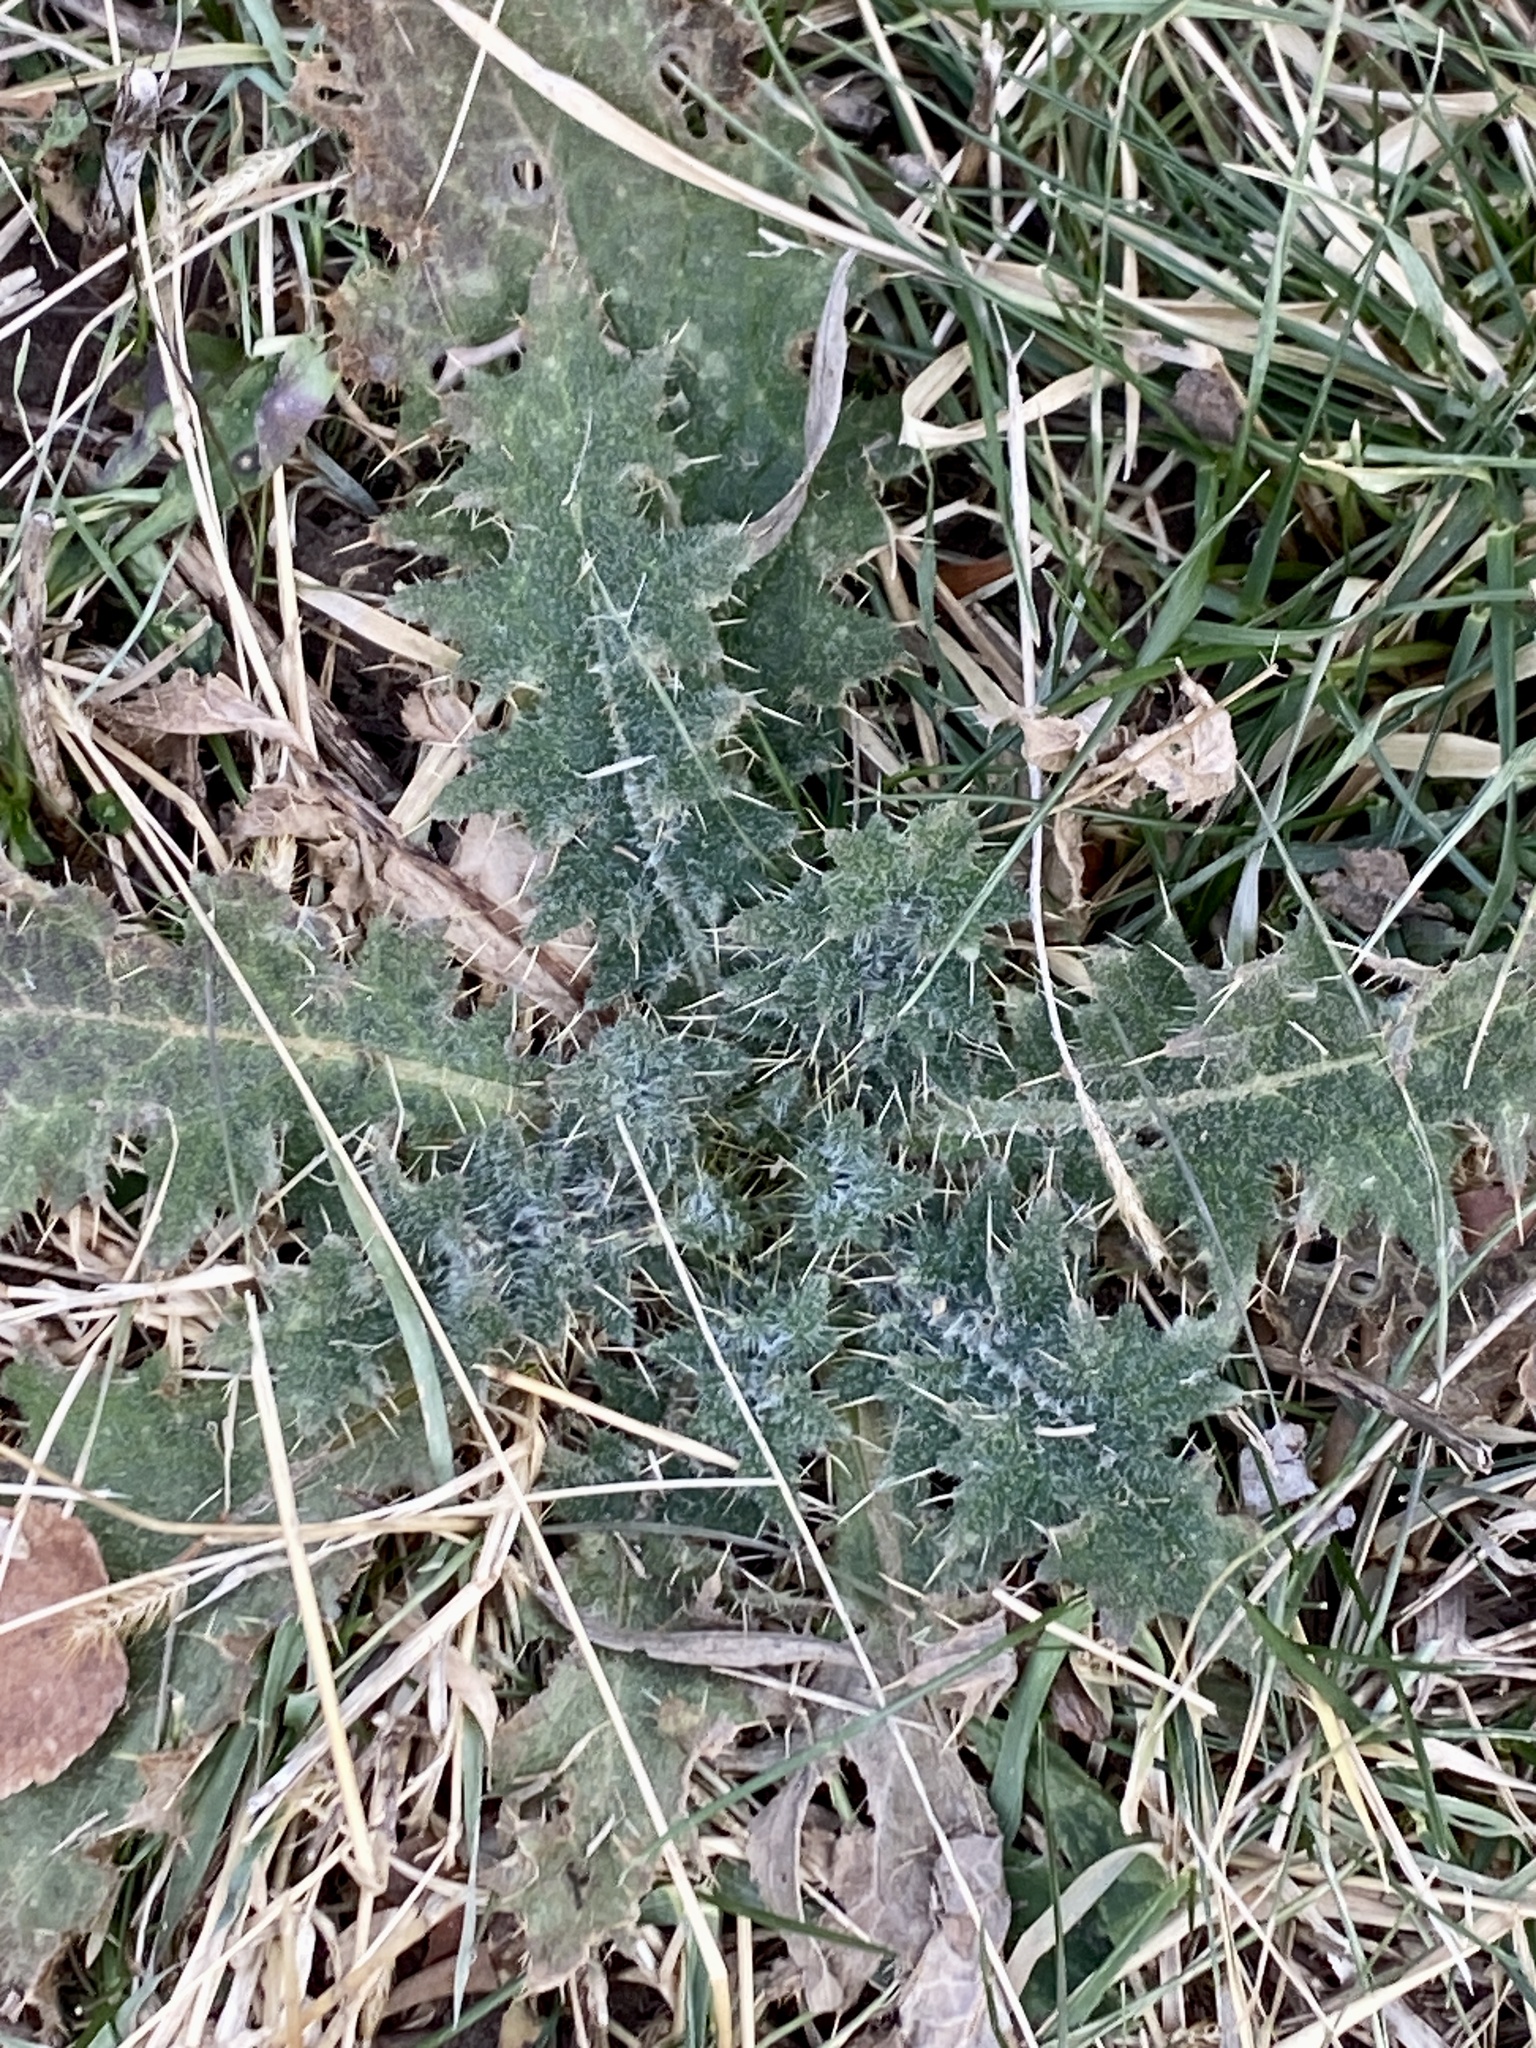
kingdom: Plantae
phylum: Tracheophyta
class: Magnoliopsida
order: Asterales
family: Asteraceae
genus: Cirsium
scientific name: Cirsium vulgare
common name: Bull thistle
